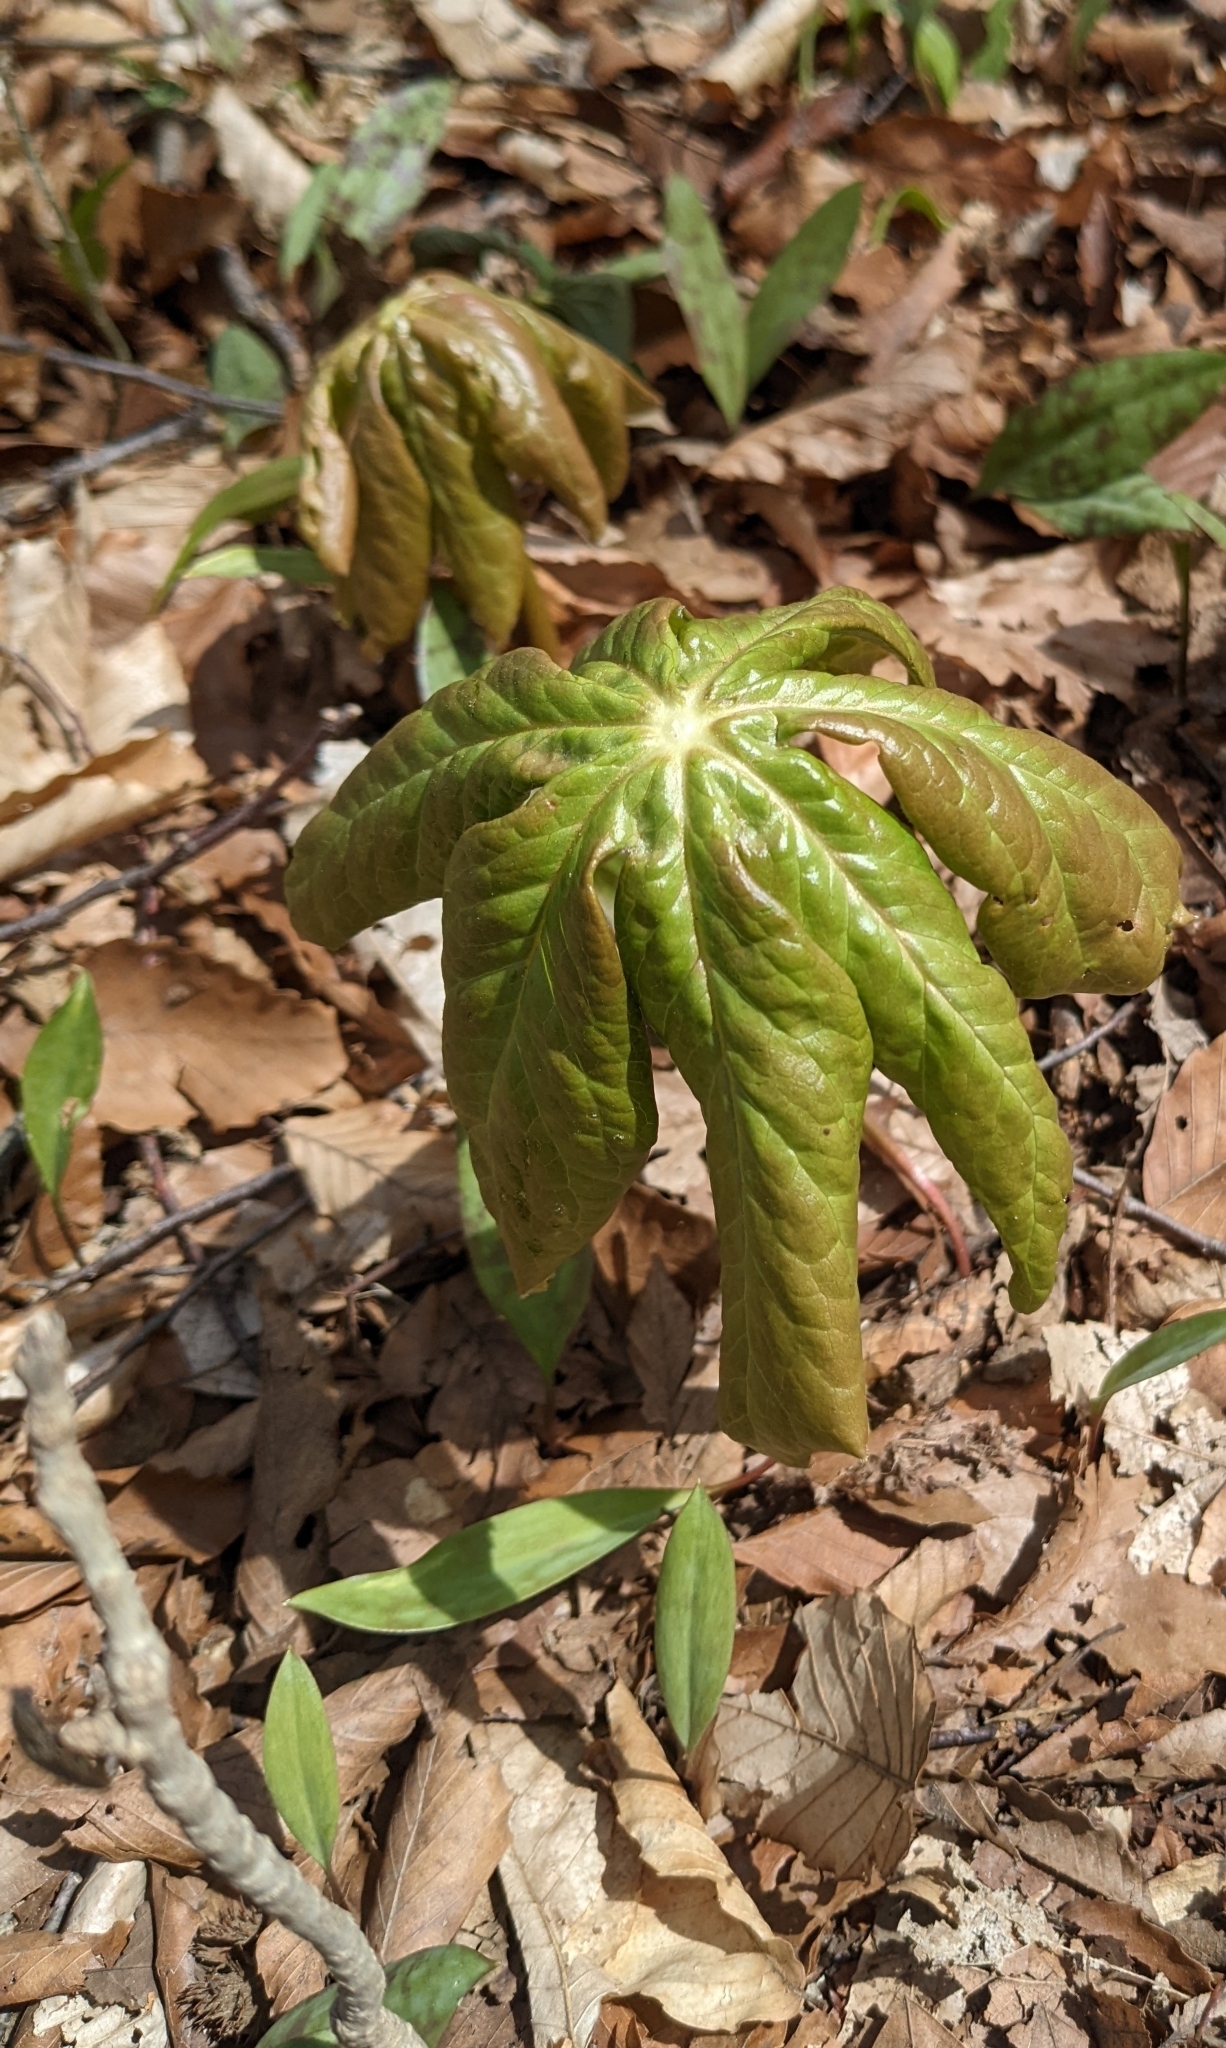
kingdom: Plantae
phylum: Tracheophyta
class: Magnoliopsida
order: Ranunculales
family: Berberidaceae
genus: Podophyllum
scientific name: Podophyllum peltatum
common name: Wild mandrake
